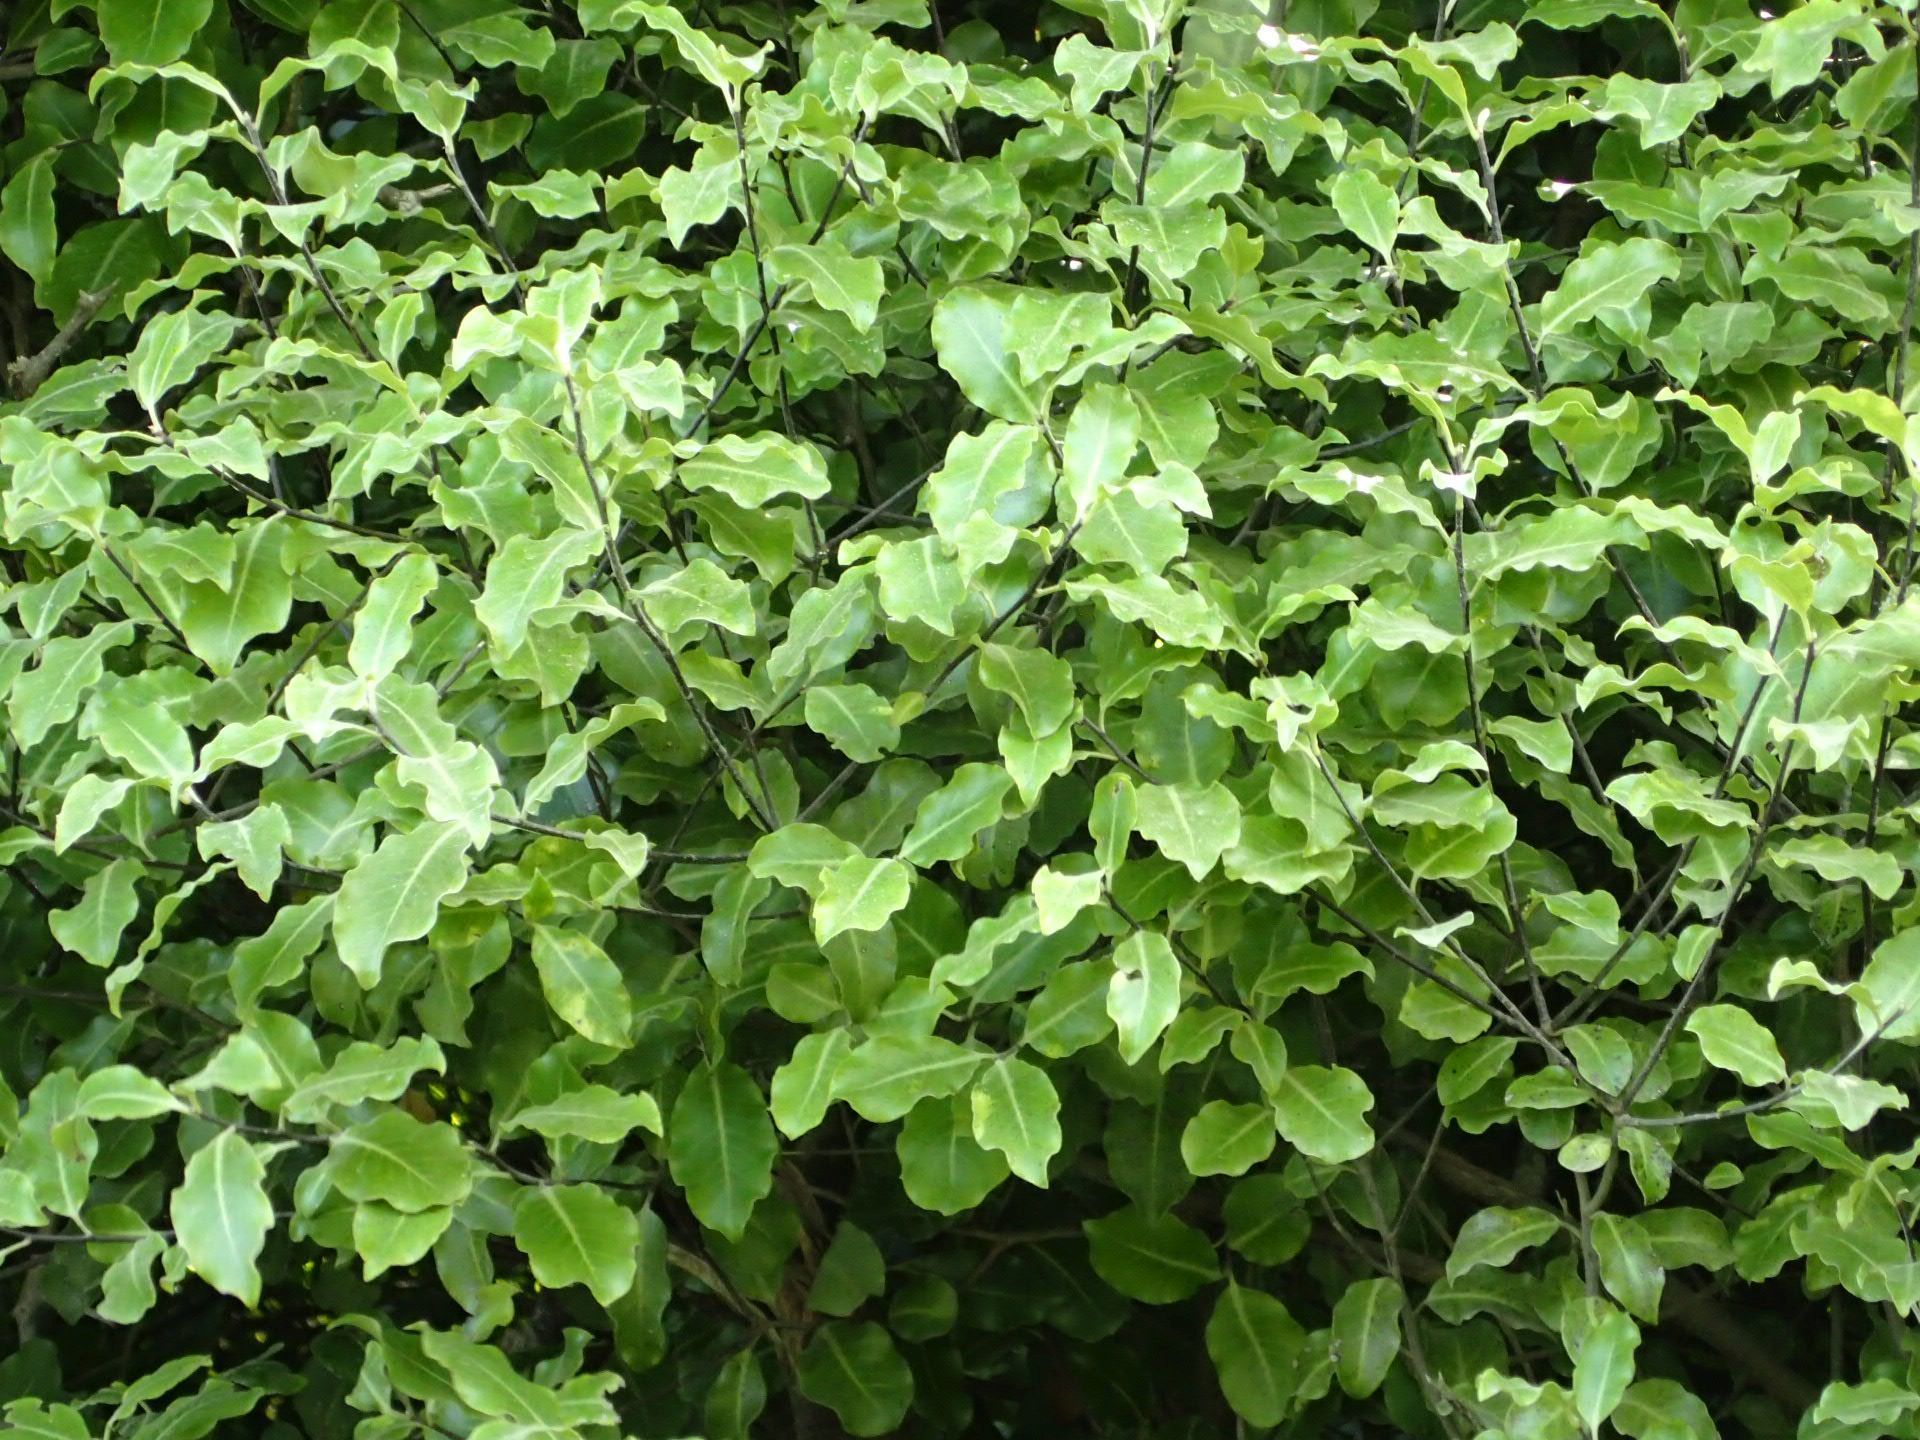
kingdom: Plantae
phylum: Tracheophyta
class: Magnoliopsida
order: Apiales
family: Pittosporaceae
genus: Pittosporum
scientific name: Pittosporum tenuifolium
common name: Kohuhu
